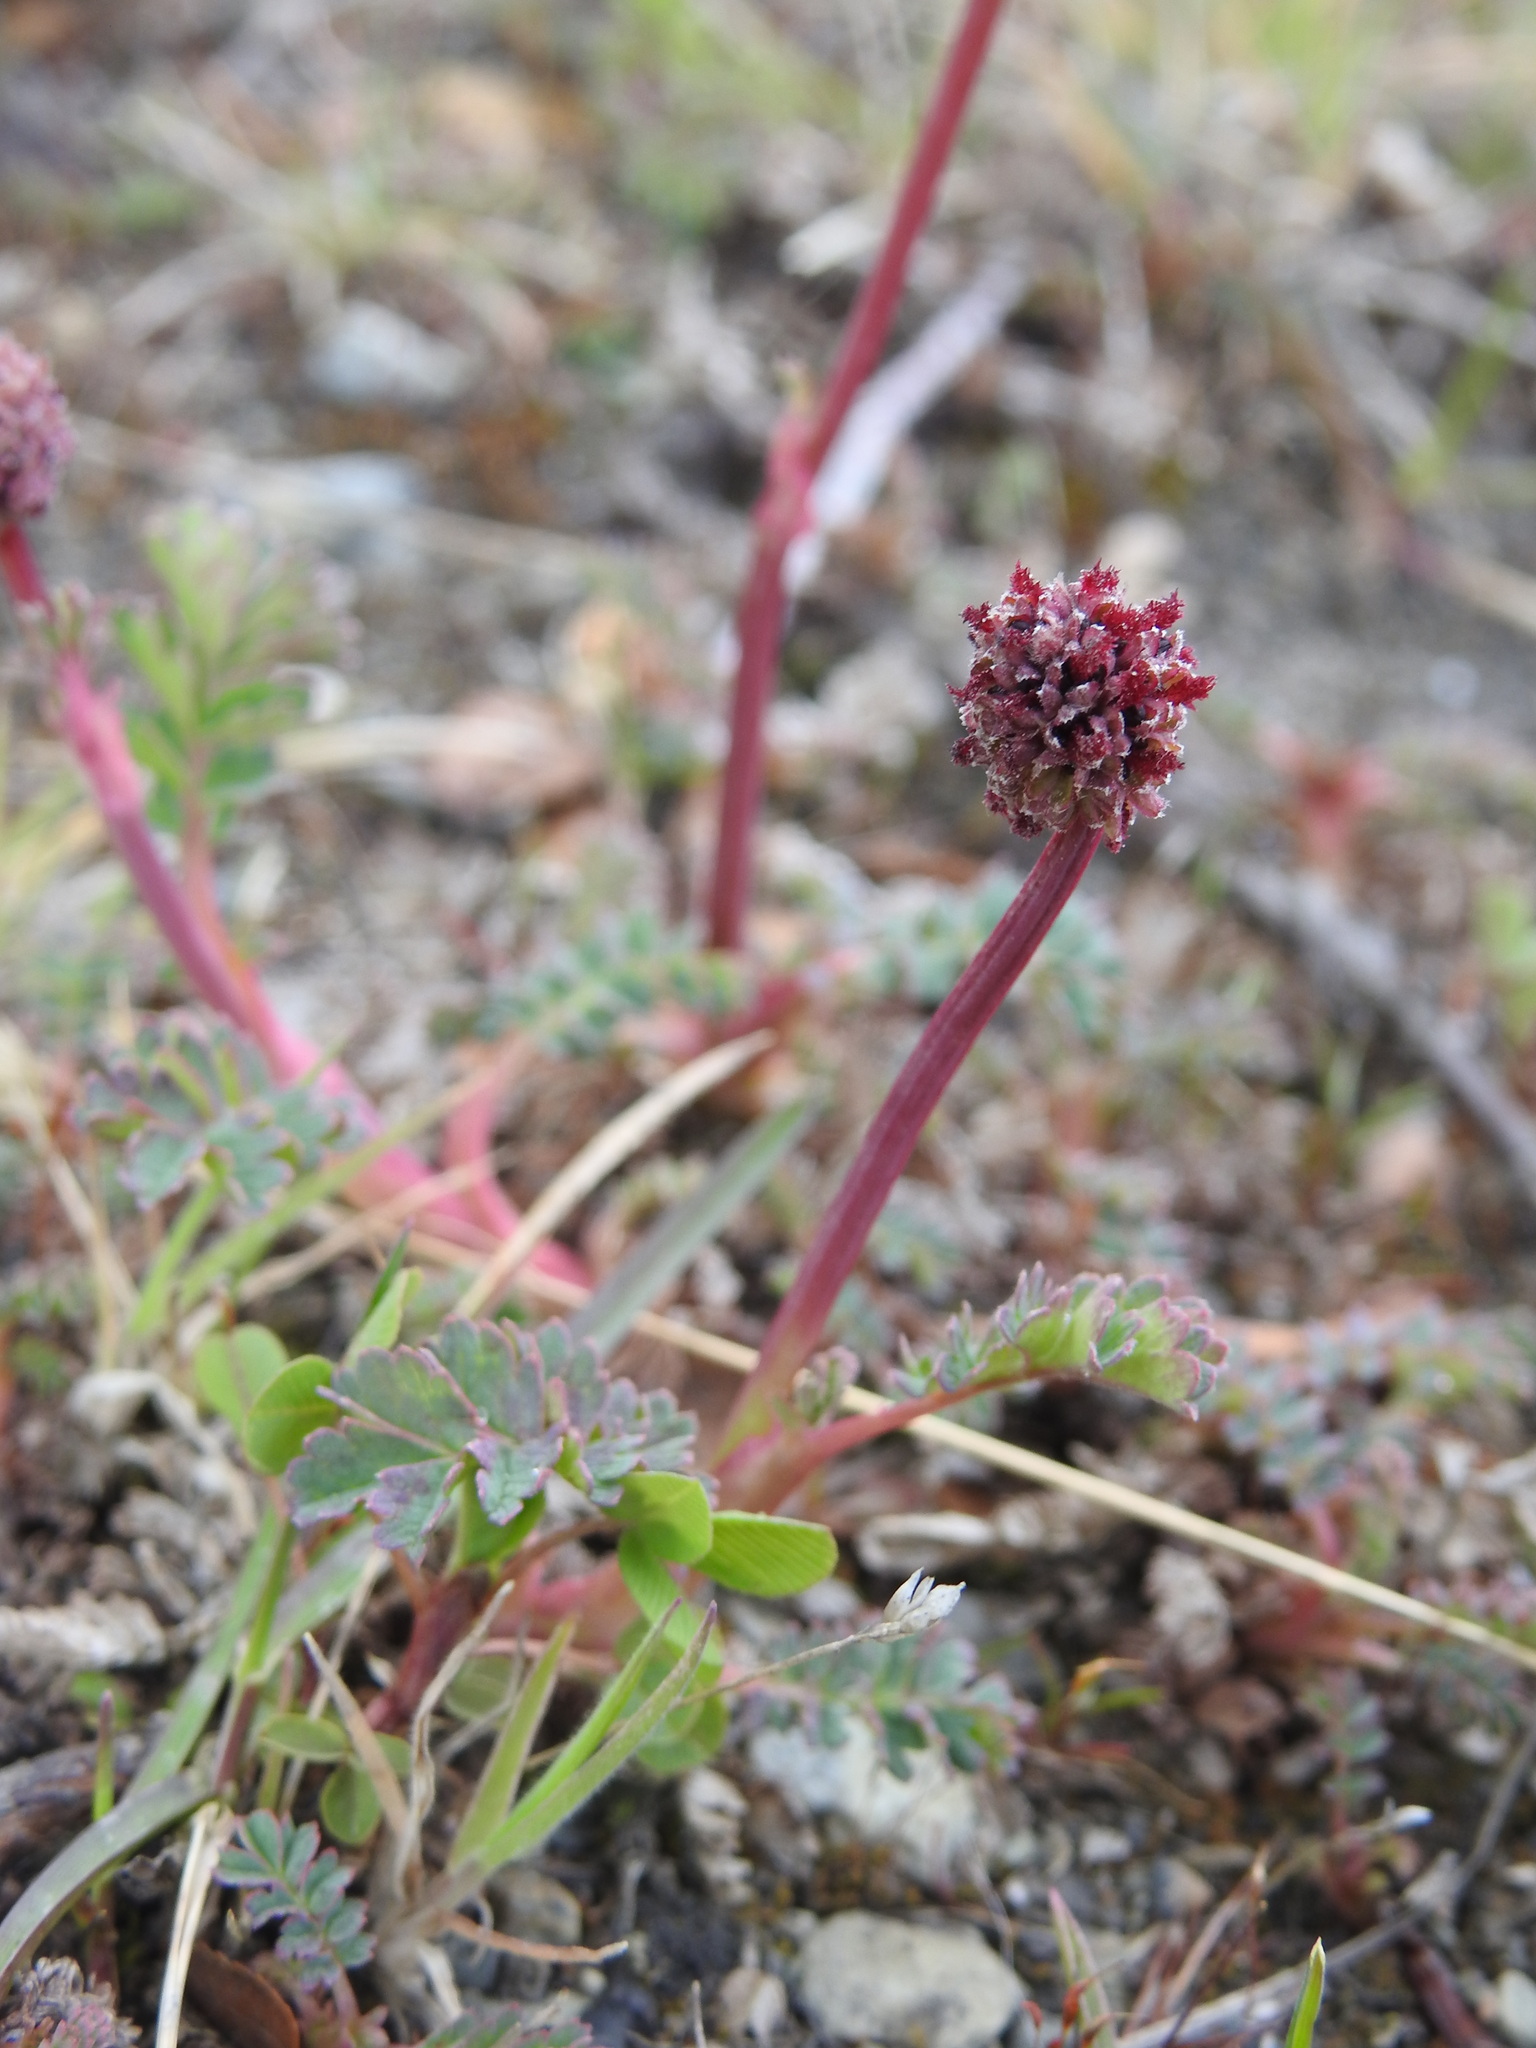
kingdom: Plantae
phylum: Tracheophyta
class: Magnoliopsida
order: Rosales
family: Rosaceae
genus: Acaena
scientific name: Acaena magellanica
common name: New zealand burr
